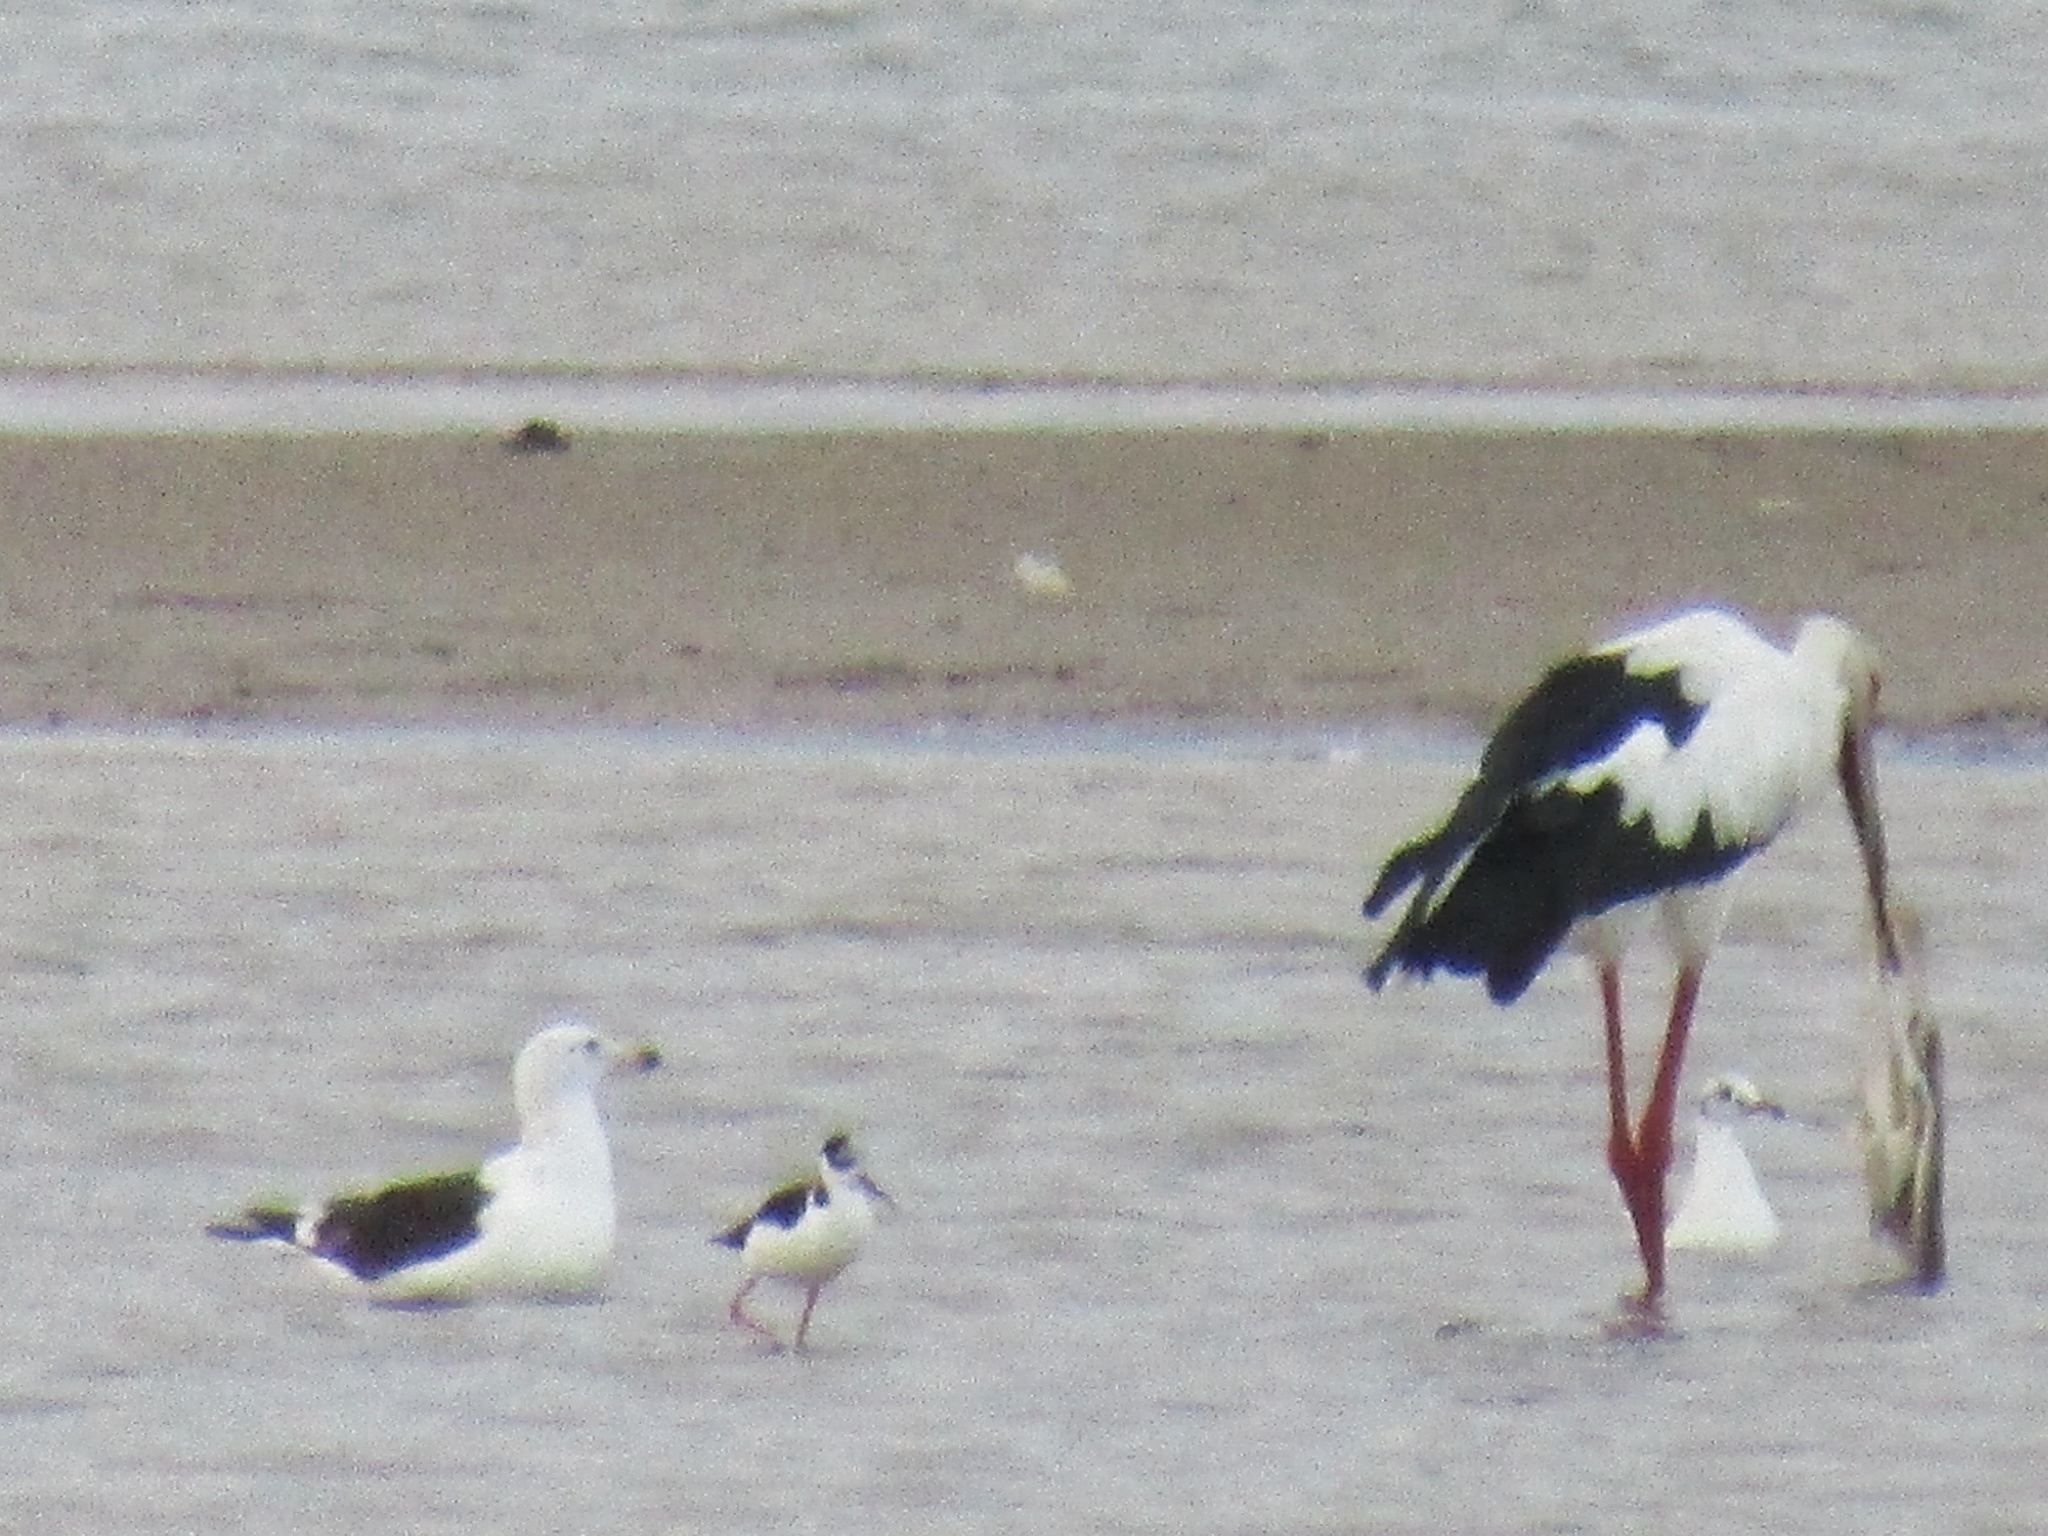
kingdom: Animalia
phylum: Chordata
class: Aves
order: Charadriiformes
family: Laridae
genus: Larus
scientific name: Larus
